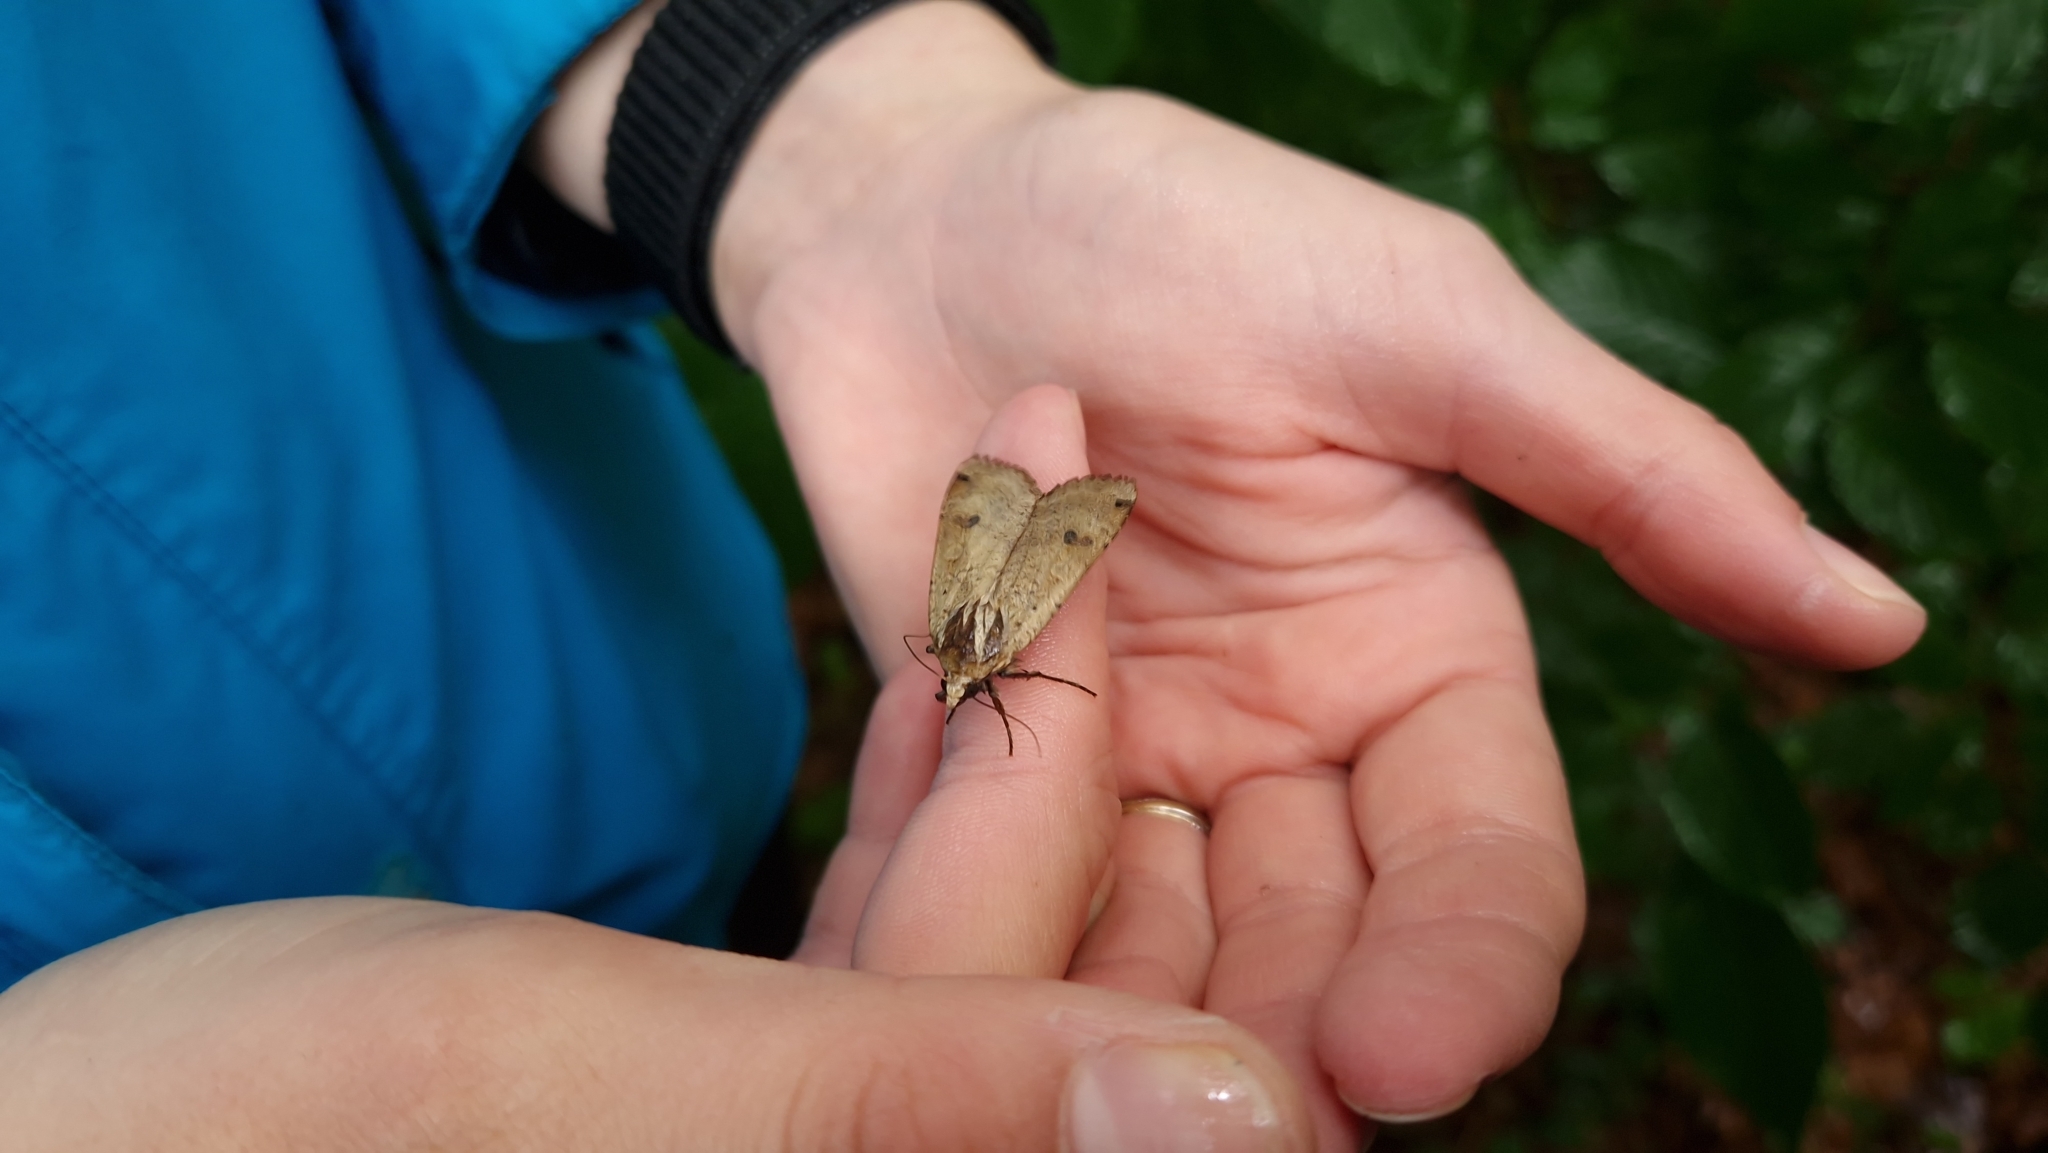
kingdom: Animalia
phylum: Arthropoda
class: Insecta
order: Lepidoptera
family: Noctuidae
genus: Noctua
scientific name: Noctua pronuba
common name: Large yellow underwing
